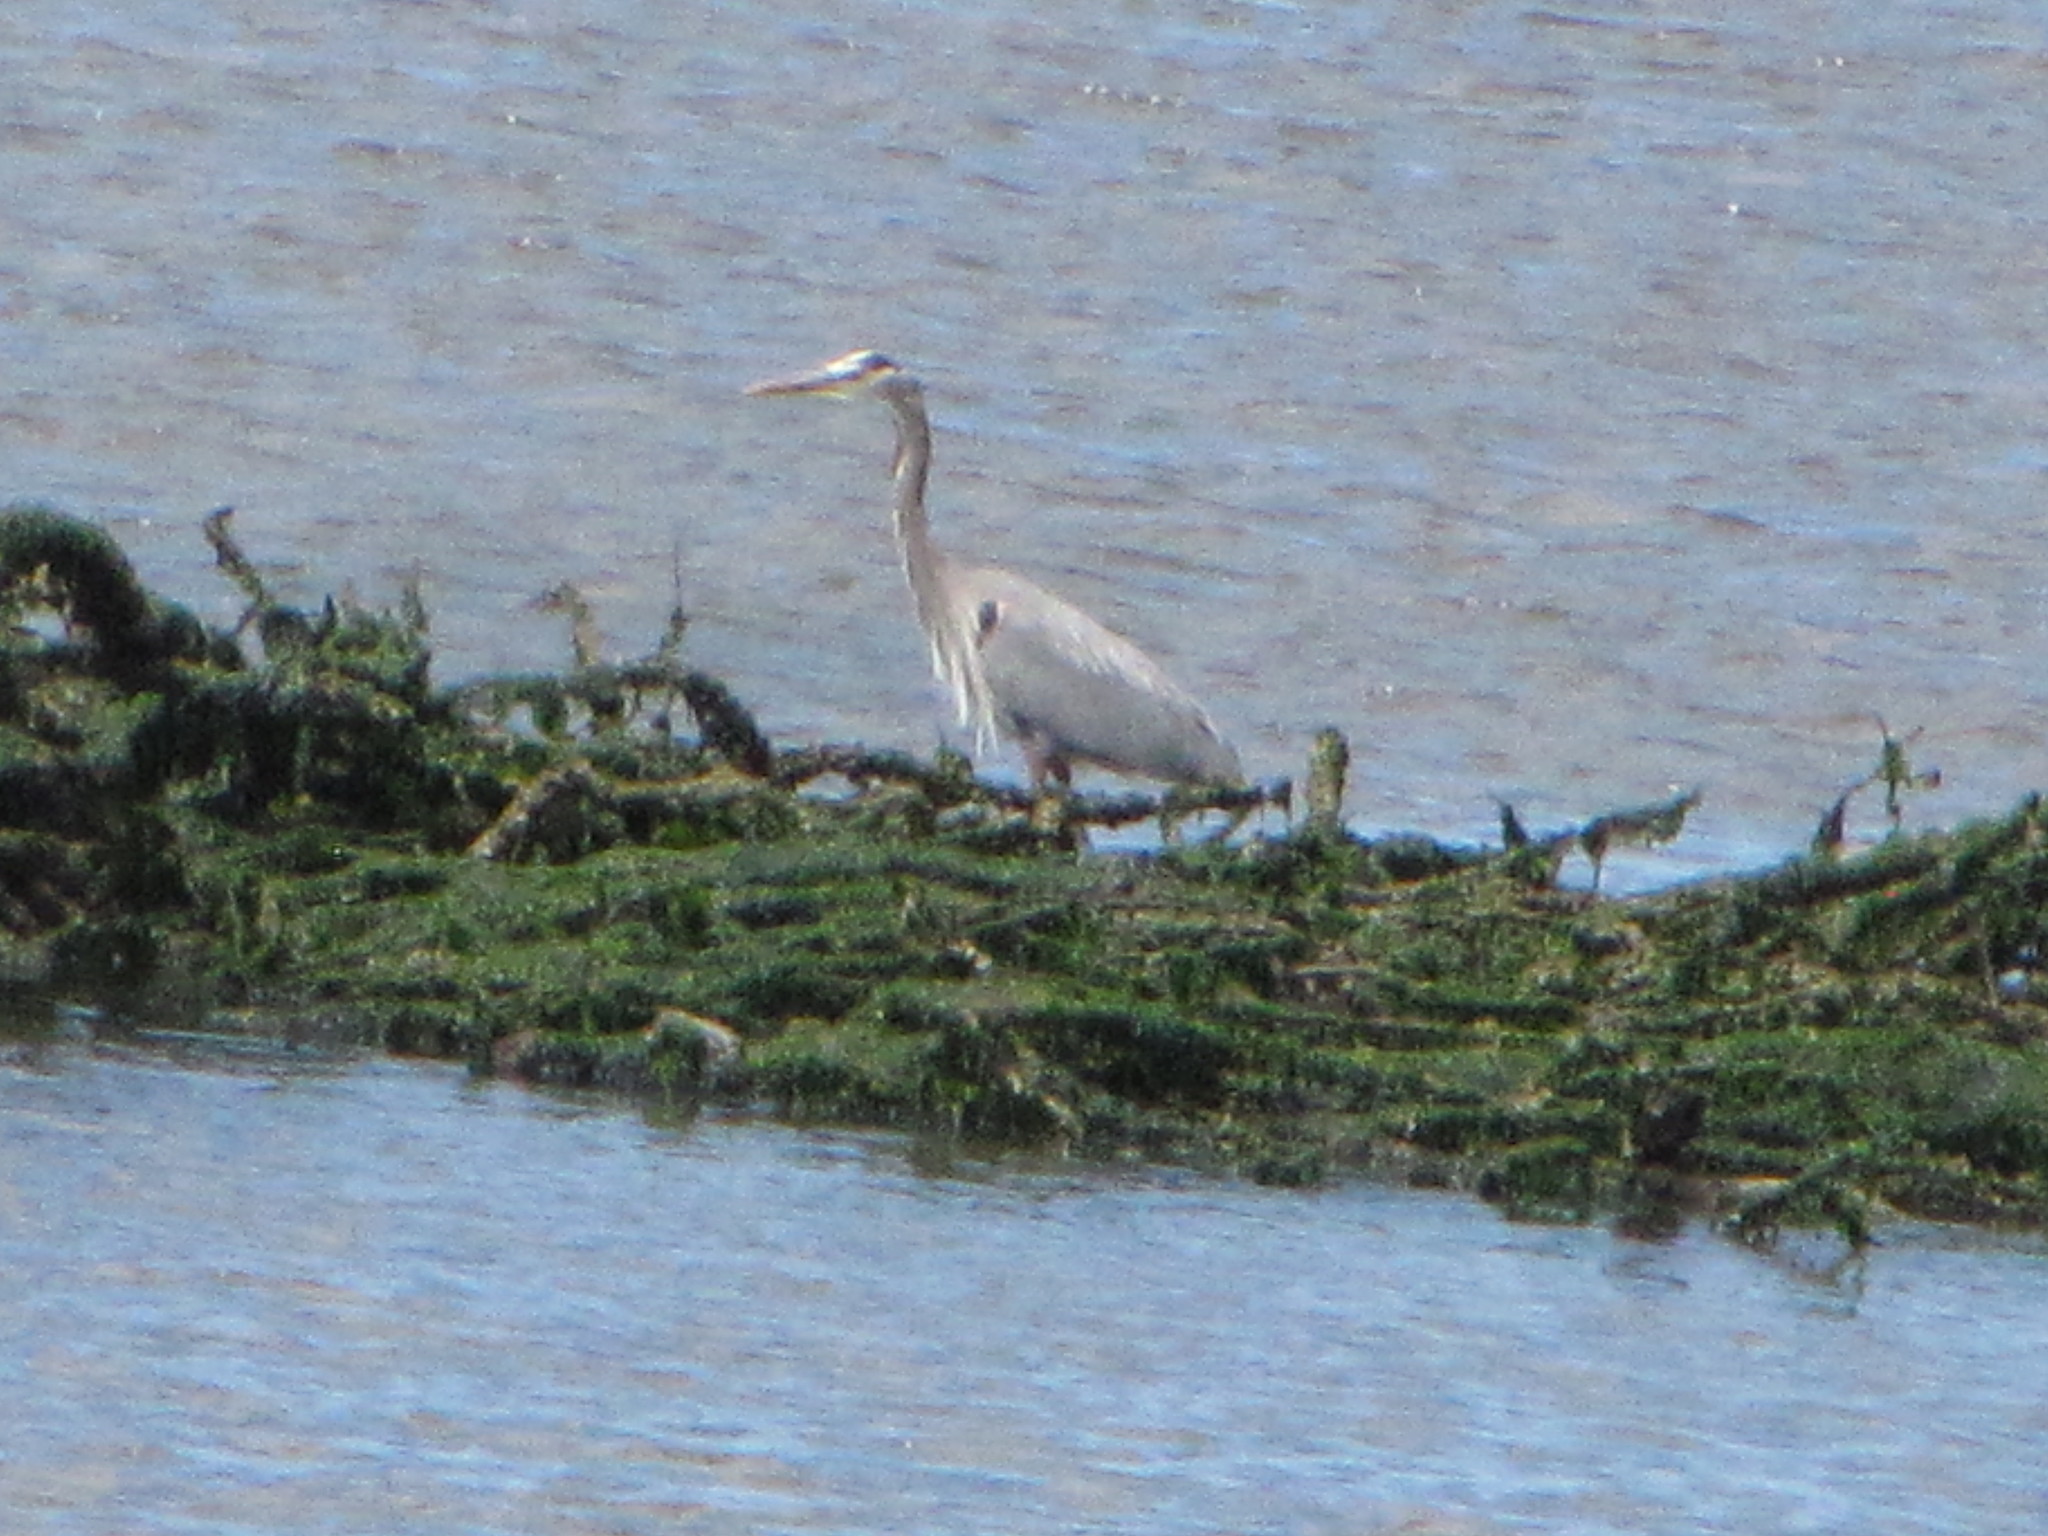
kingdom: Animalia
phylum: Chordata
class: Aves
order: Pelecaniformes
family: Ardeidae
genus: Ardea
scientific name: Ardea herodias
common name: Great blue heron
